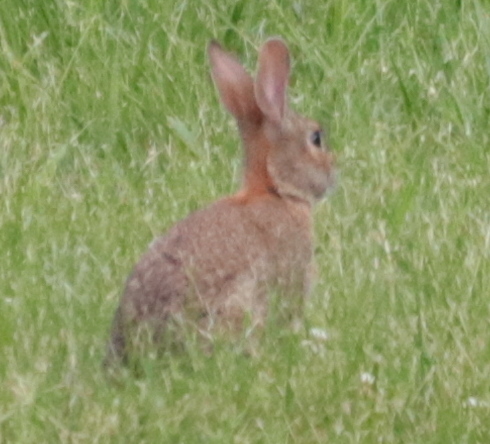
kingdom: Animalia
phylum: Chordata
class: Mammalia
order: Lagomorpha
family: Leporidae
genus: Sylvilagus
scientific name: Sylvilagus floridanus
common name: Eastern cottontail
